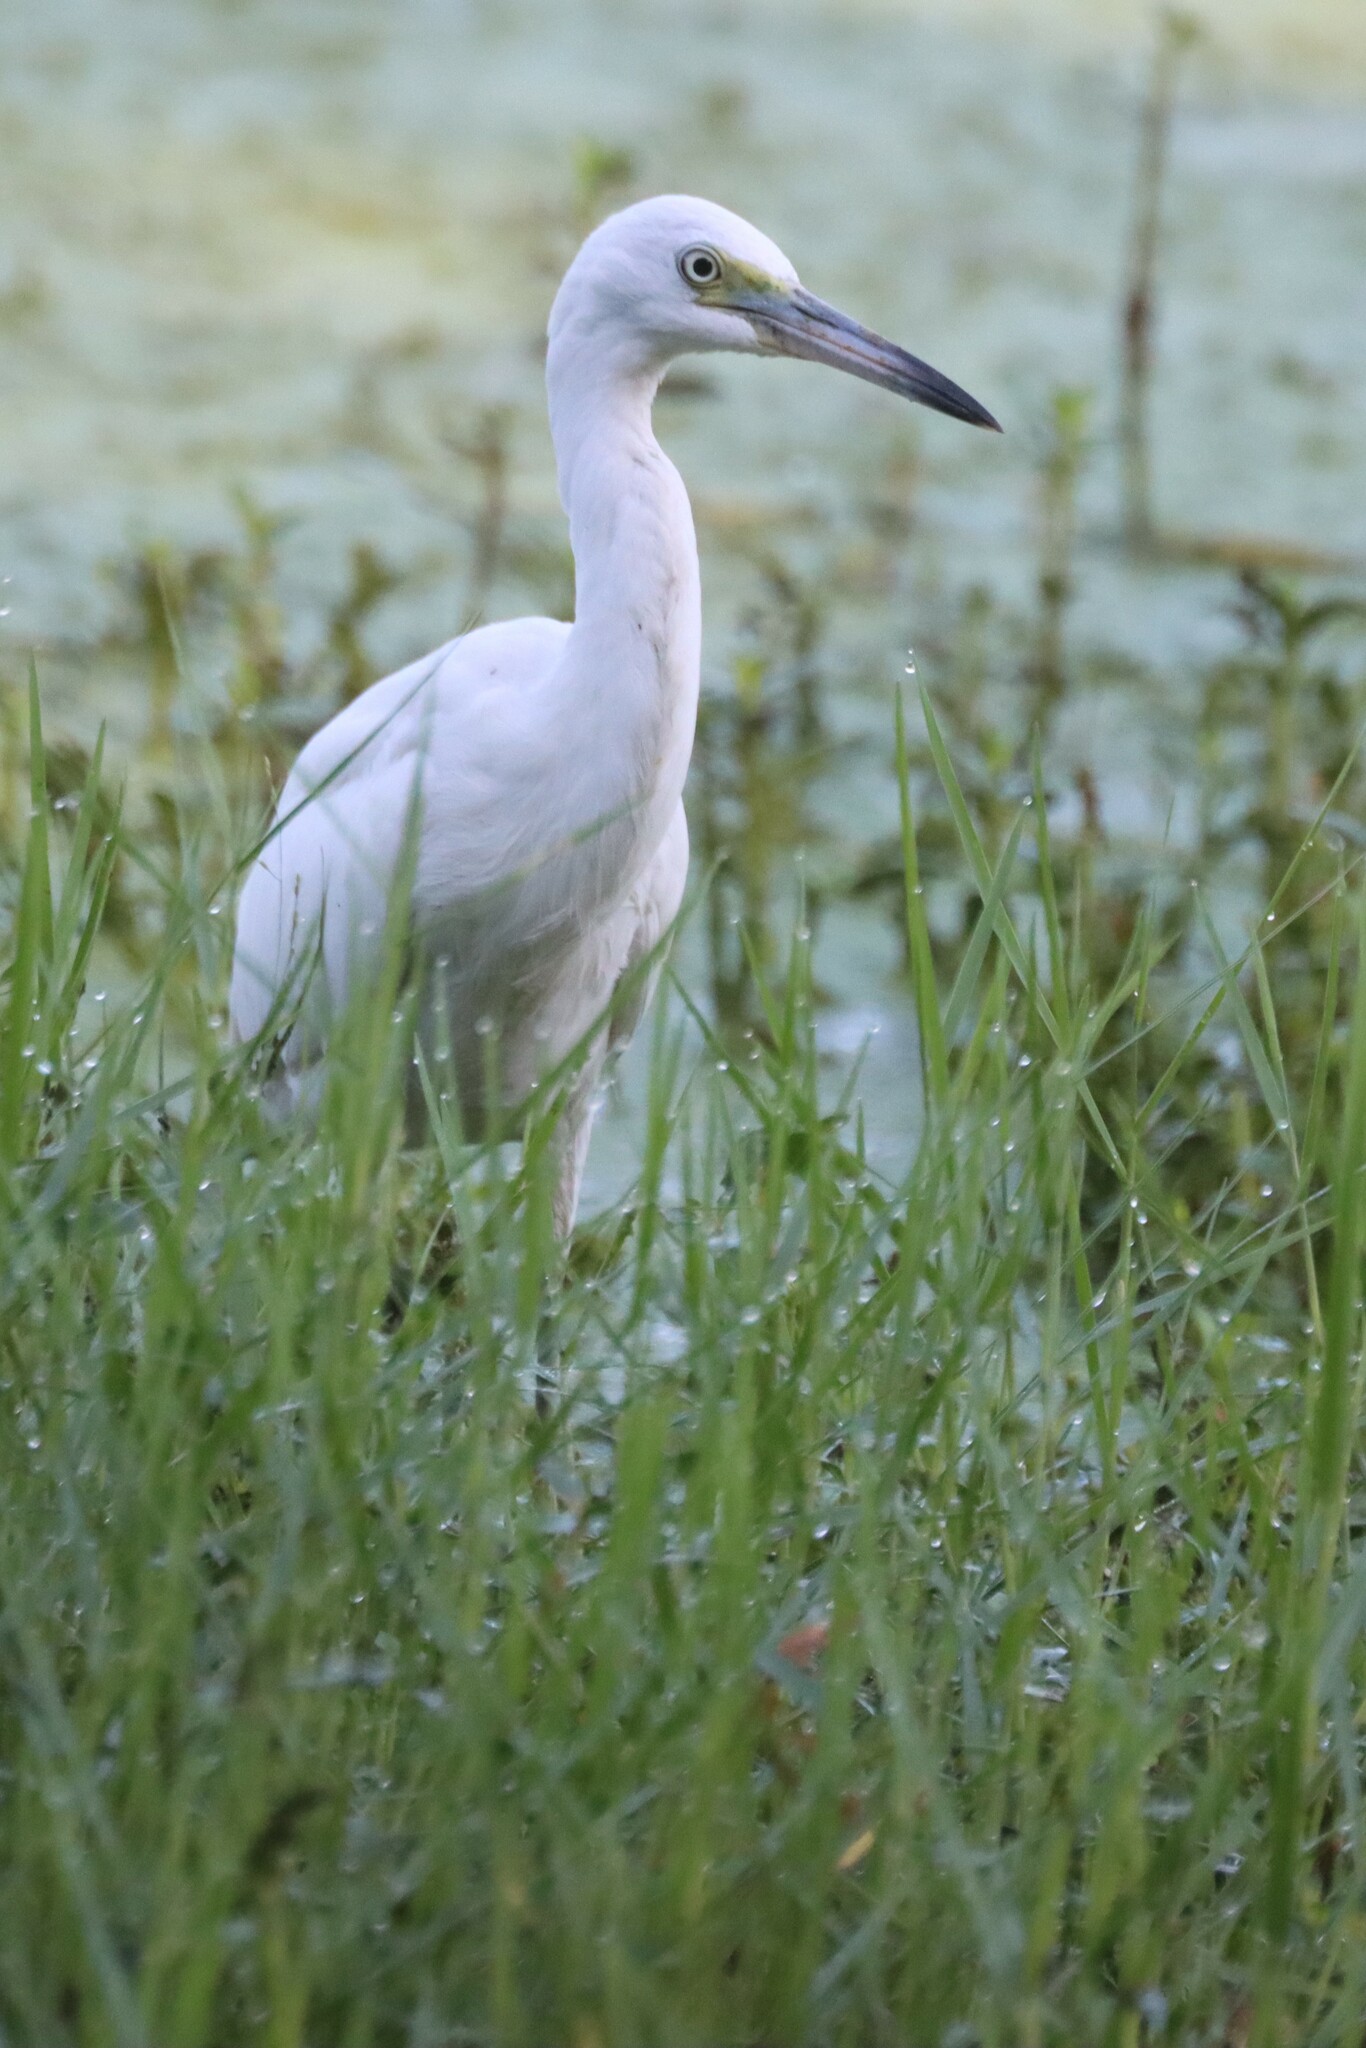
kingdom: Animalia
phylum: Chordata
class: Aves
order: Pelecaniformes
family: Ardeidae
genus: Egretta
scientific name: Egretta caerulea
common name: Little blue heron
